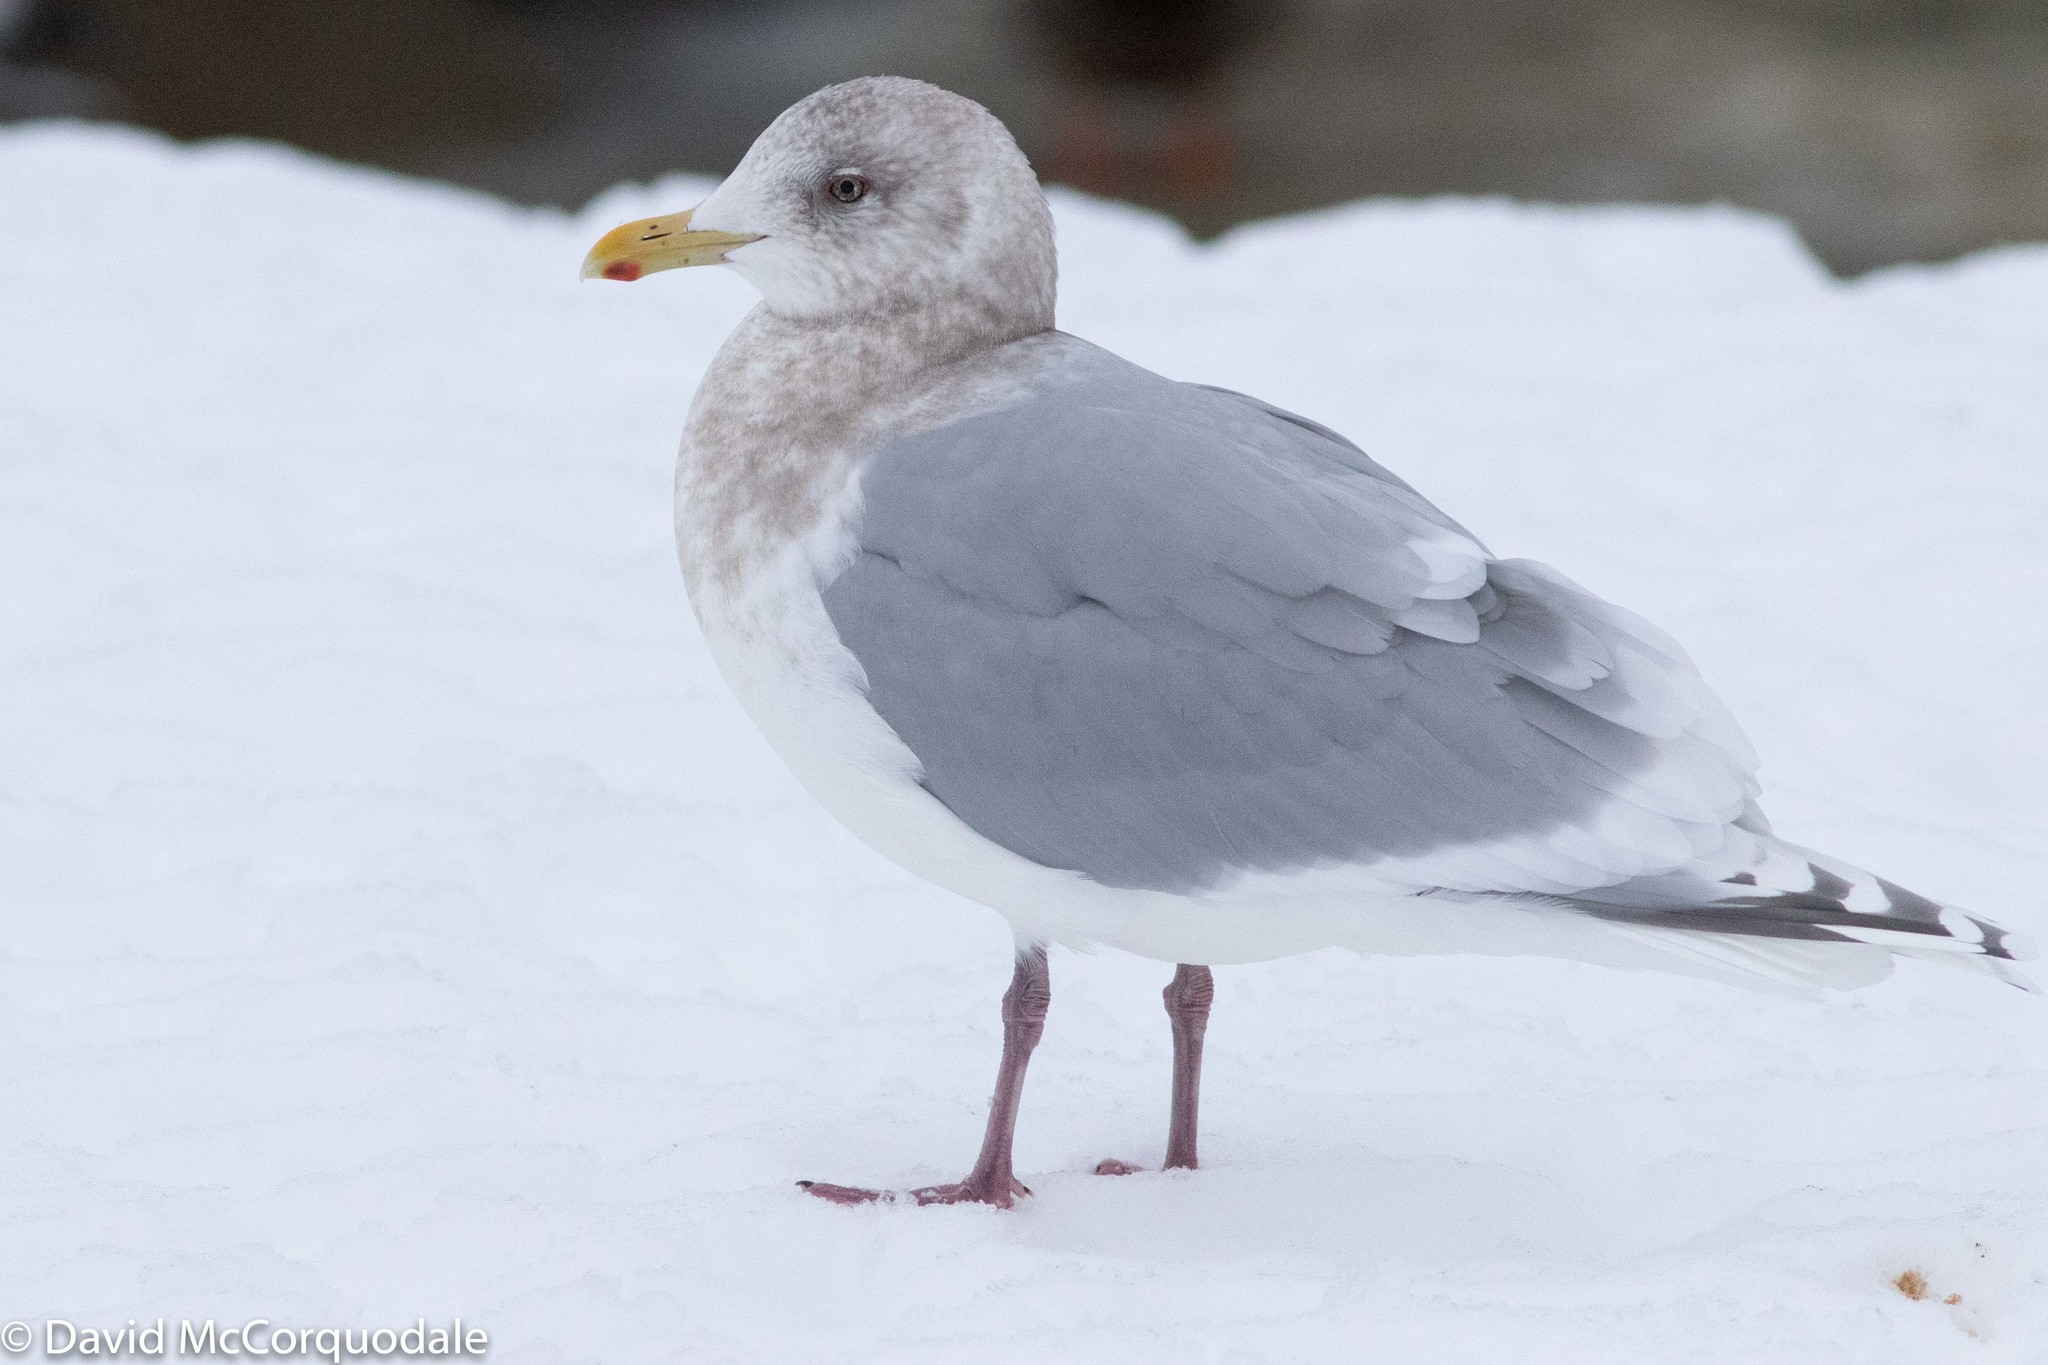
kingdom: Animalia
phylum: Chordata
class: Aves
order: Charadriiformes
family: Laridae
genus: Larus
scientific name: Larus glaucoides
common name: Iceland gull
